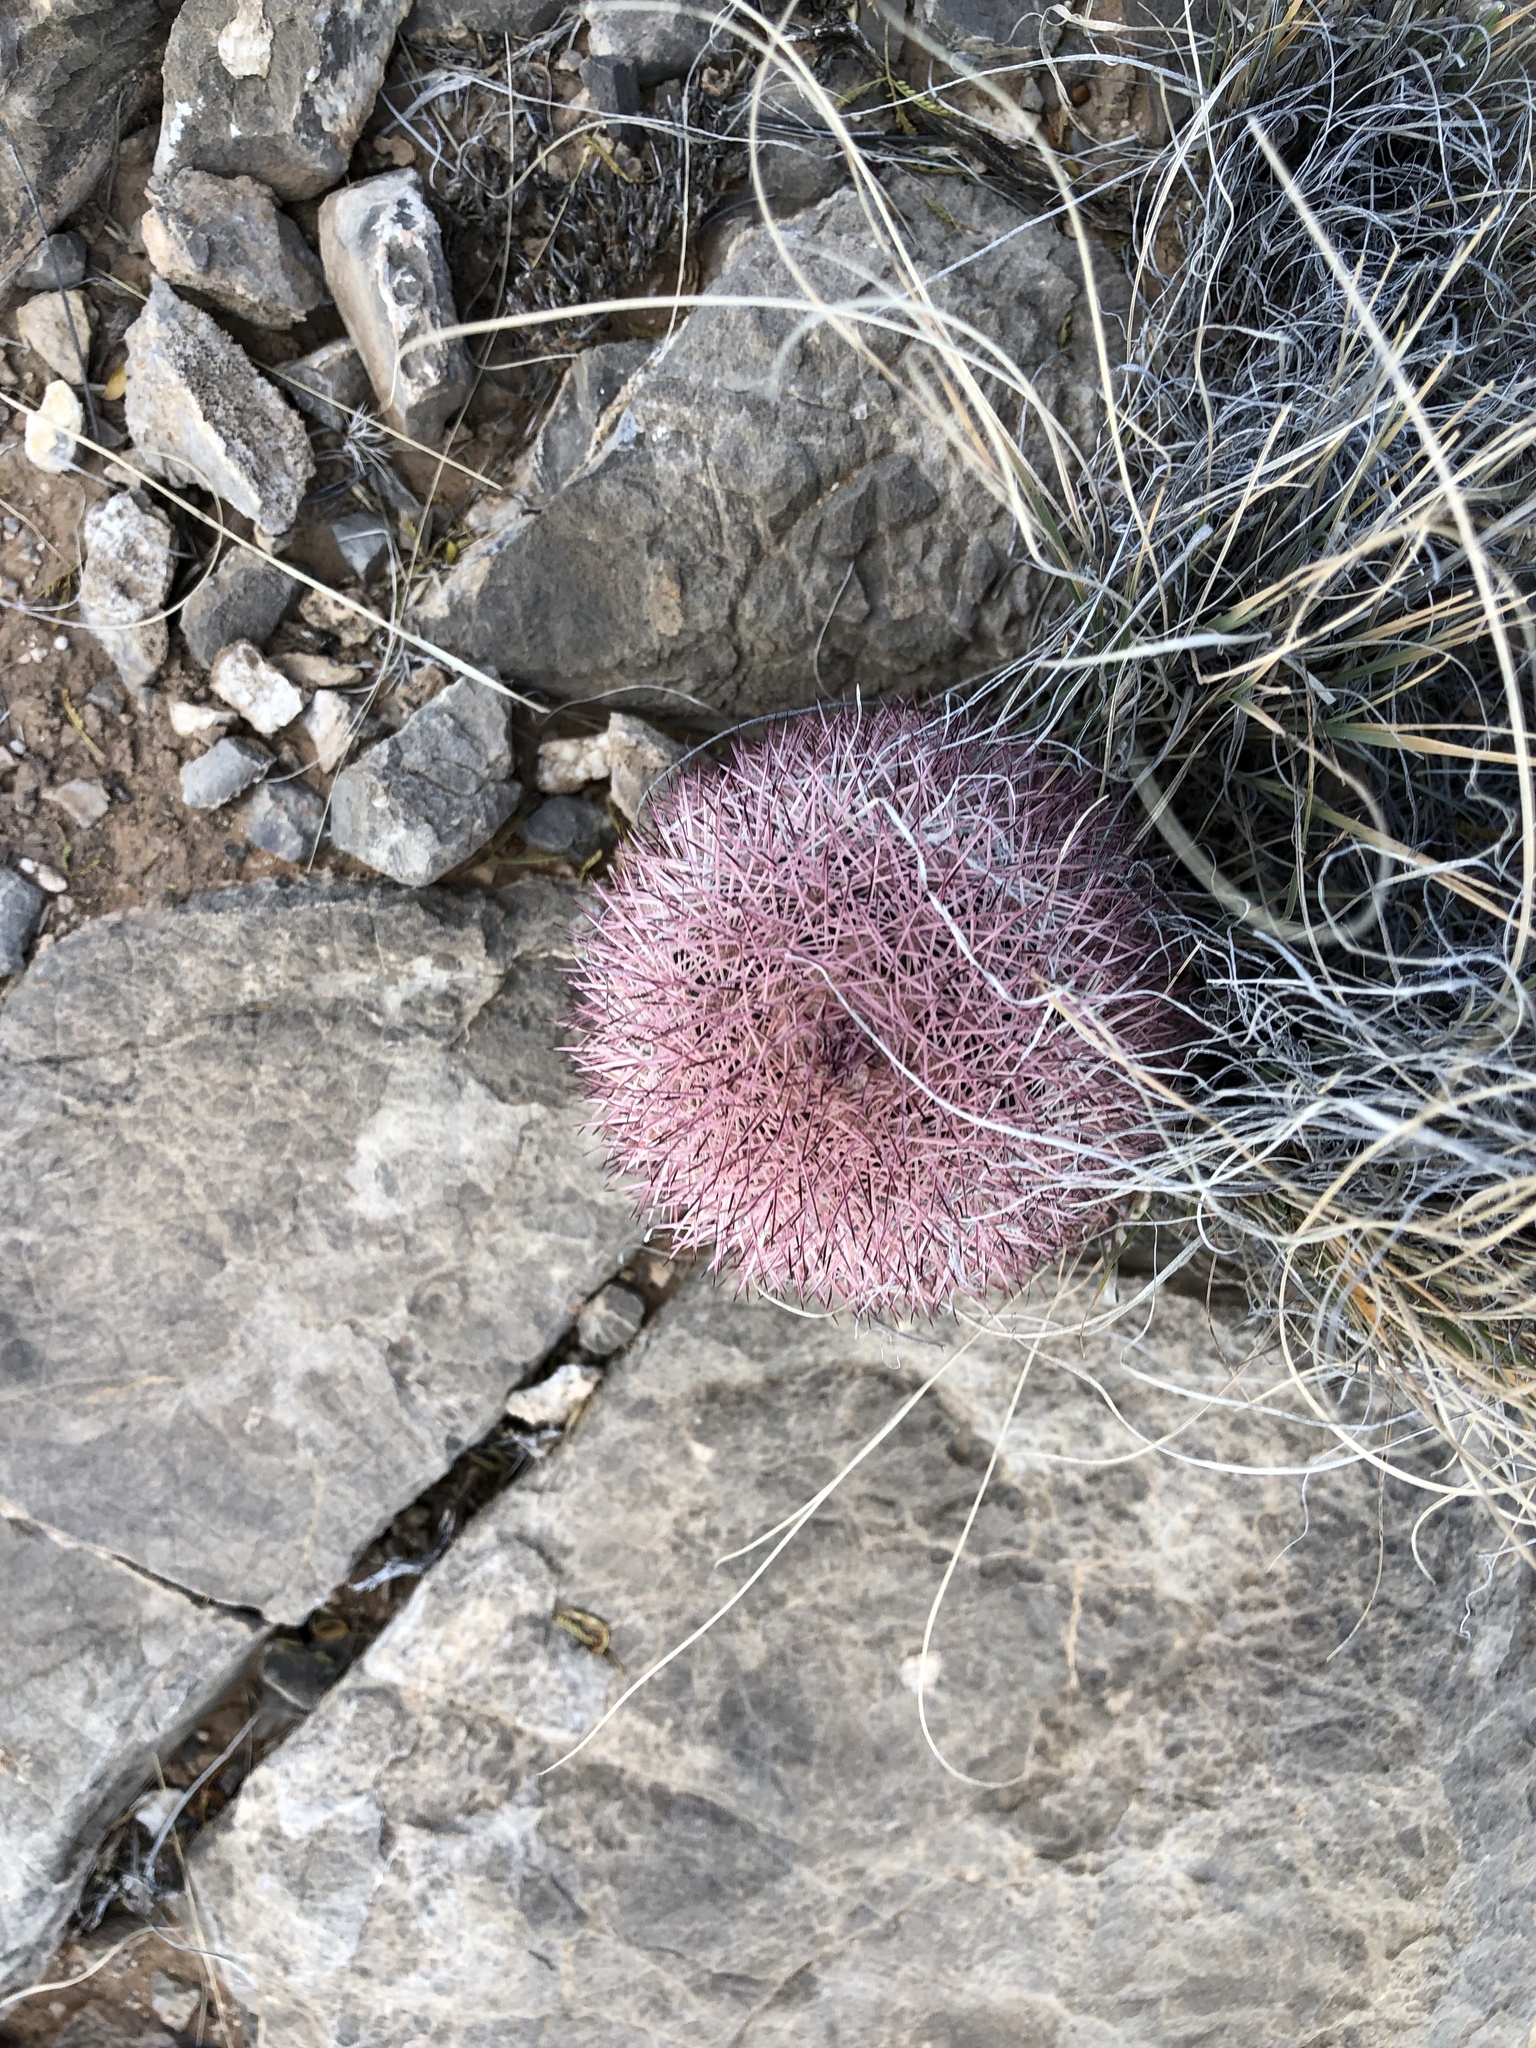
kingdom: Plantae
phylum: Tracheophyta
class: Magnoliopsida
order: Caryophyllales
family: Cactaceae
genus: Echinocereus
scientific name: Echinocereus dasyacanthus
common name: Spiny hedgehog cactus
